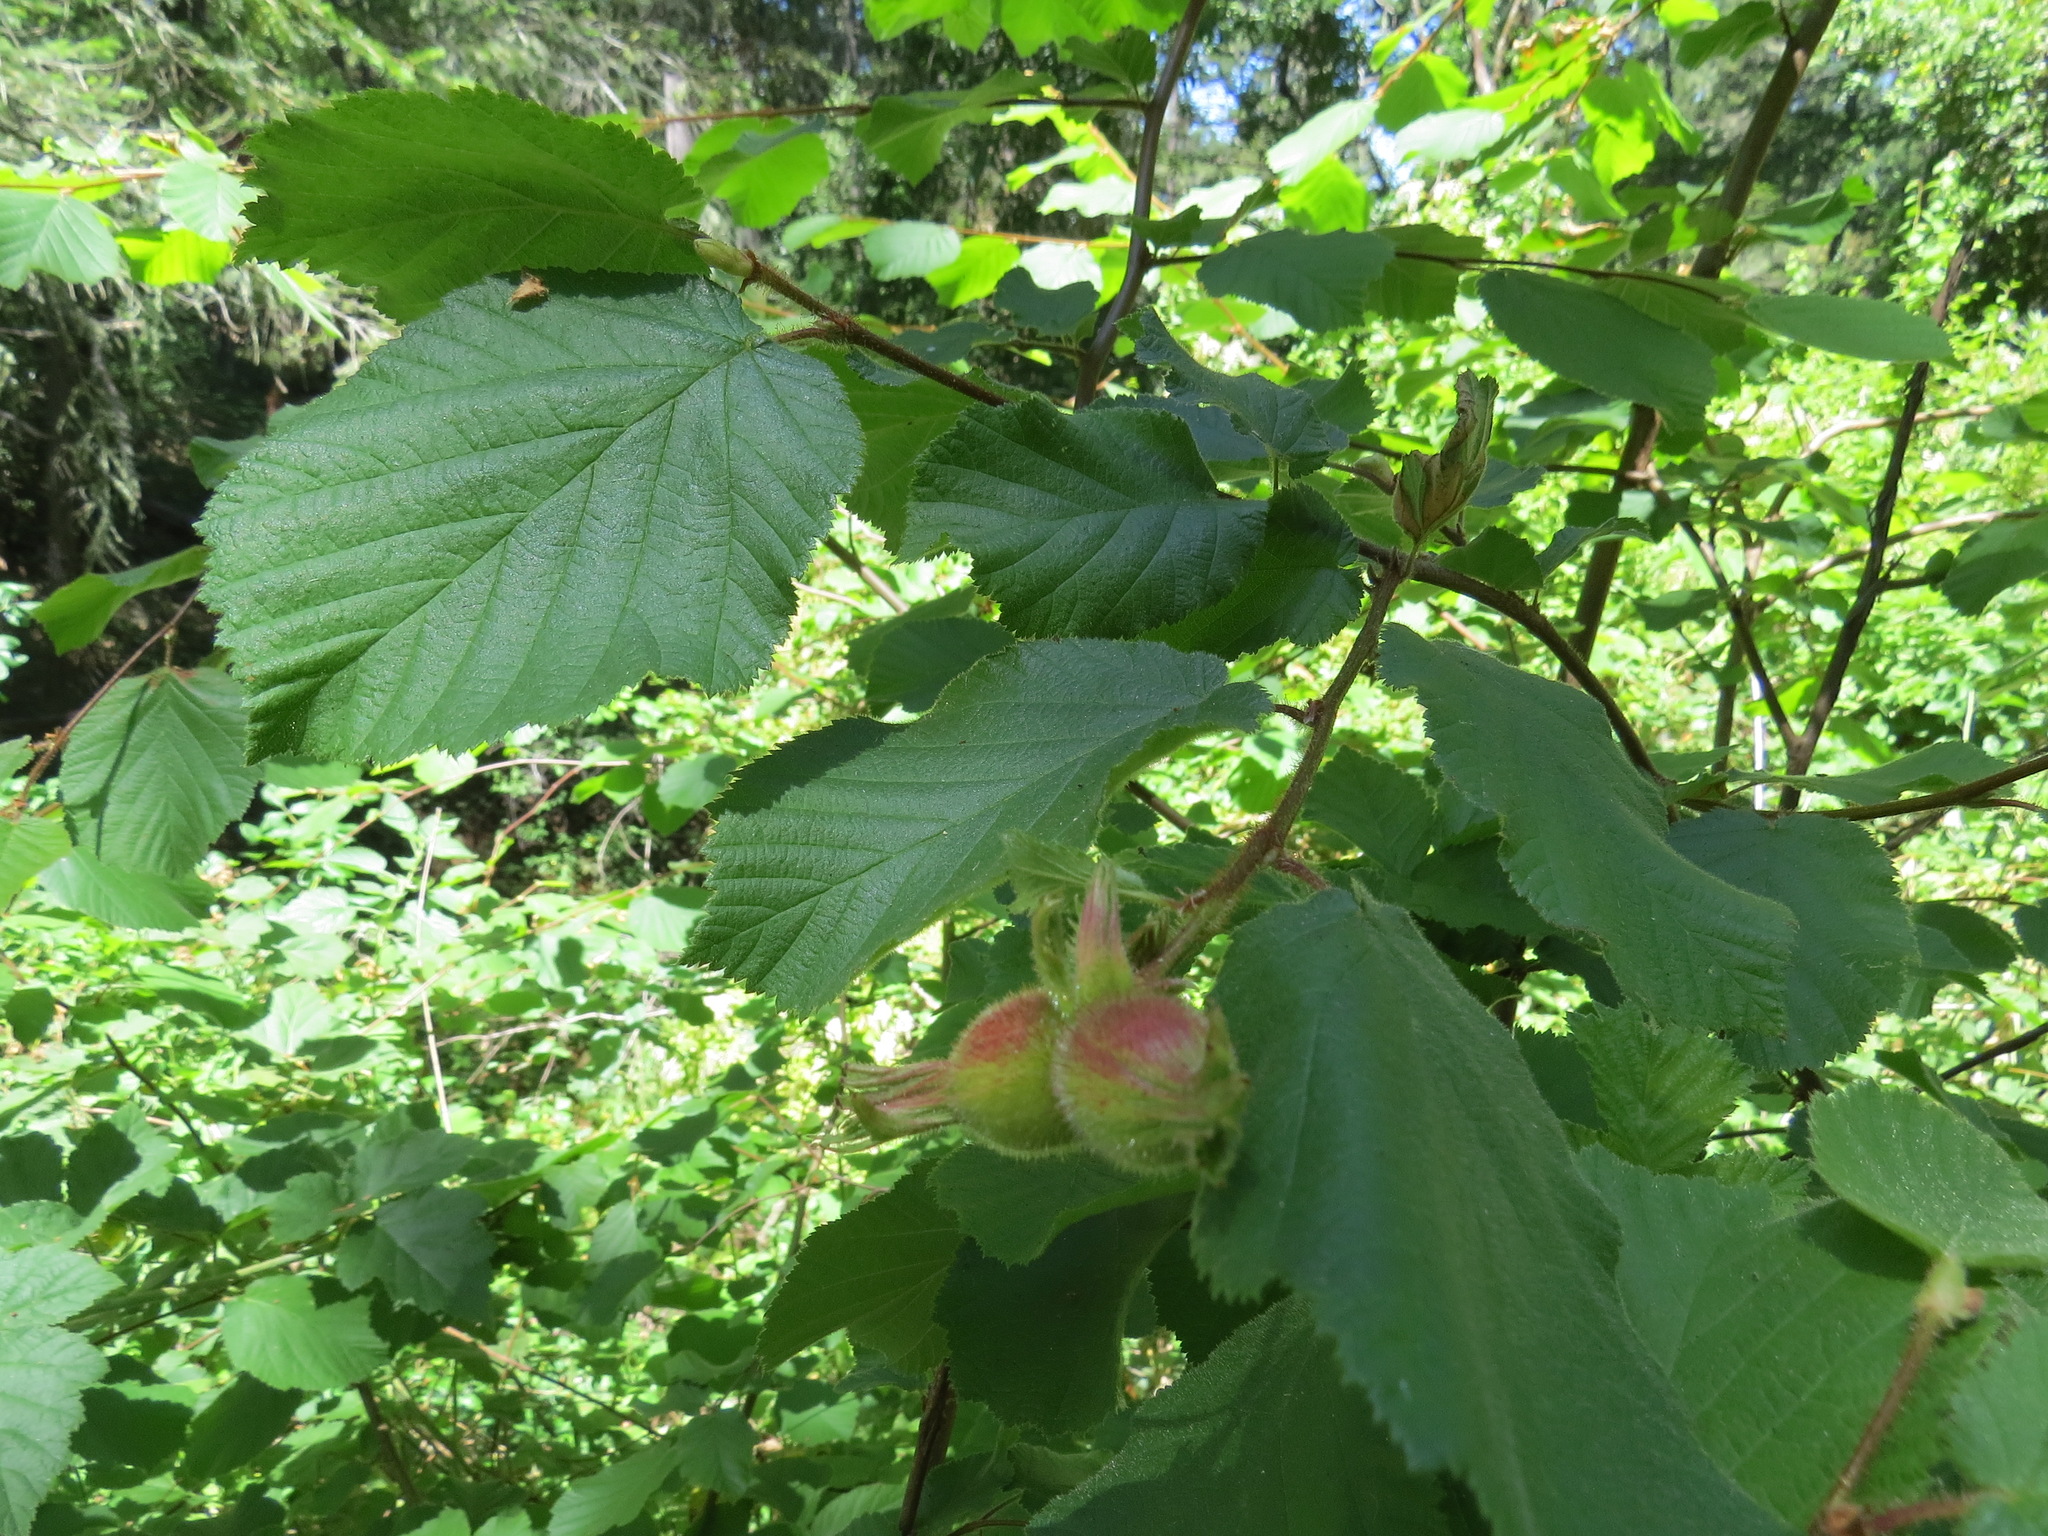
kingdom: Plantae
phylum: Tracheophyta
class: Magnoliopsida
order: Fagales
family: Betulaceae
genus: Corylus
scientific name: Corylus cornuta
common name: Beaked hazel
